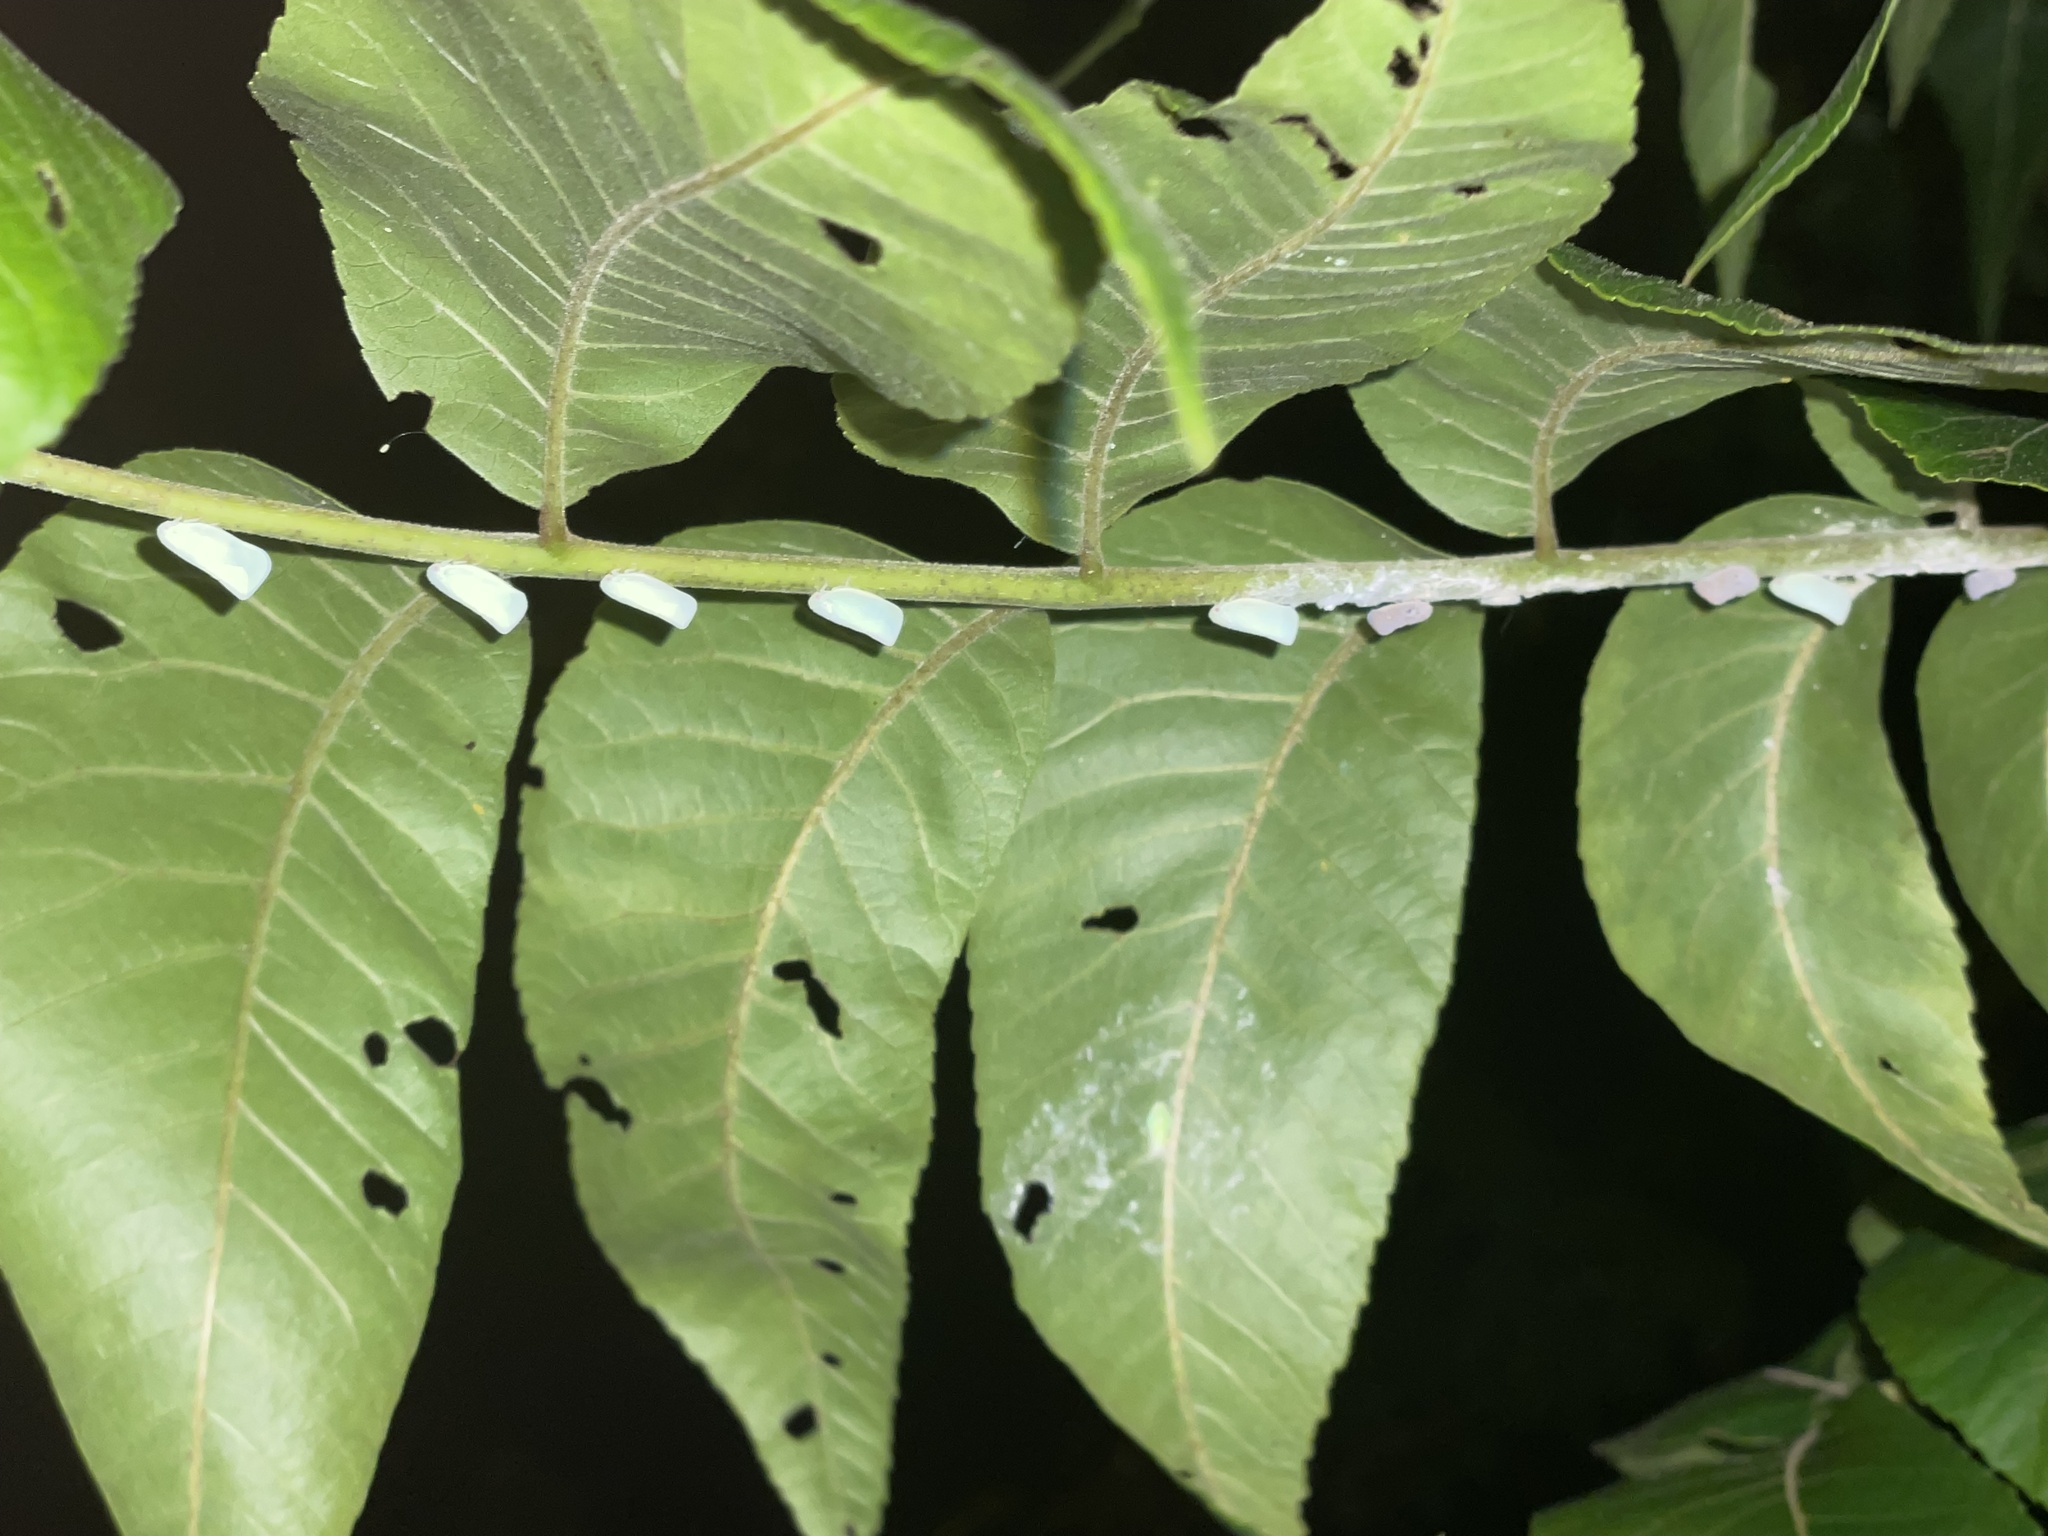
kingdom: Animalia
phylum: Arthropoda
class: Insecta
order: Hemiptera
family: Flatidae
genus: Metcalfa
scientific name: Metcalfa pruinosa
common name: Citrus flatid planthopper
